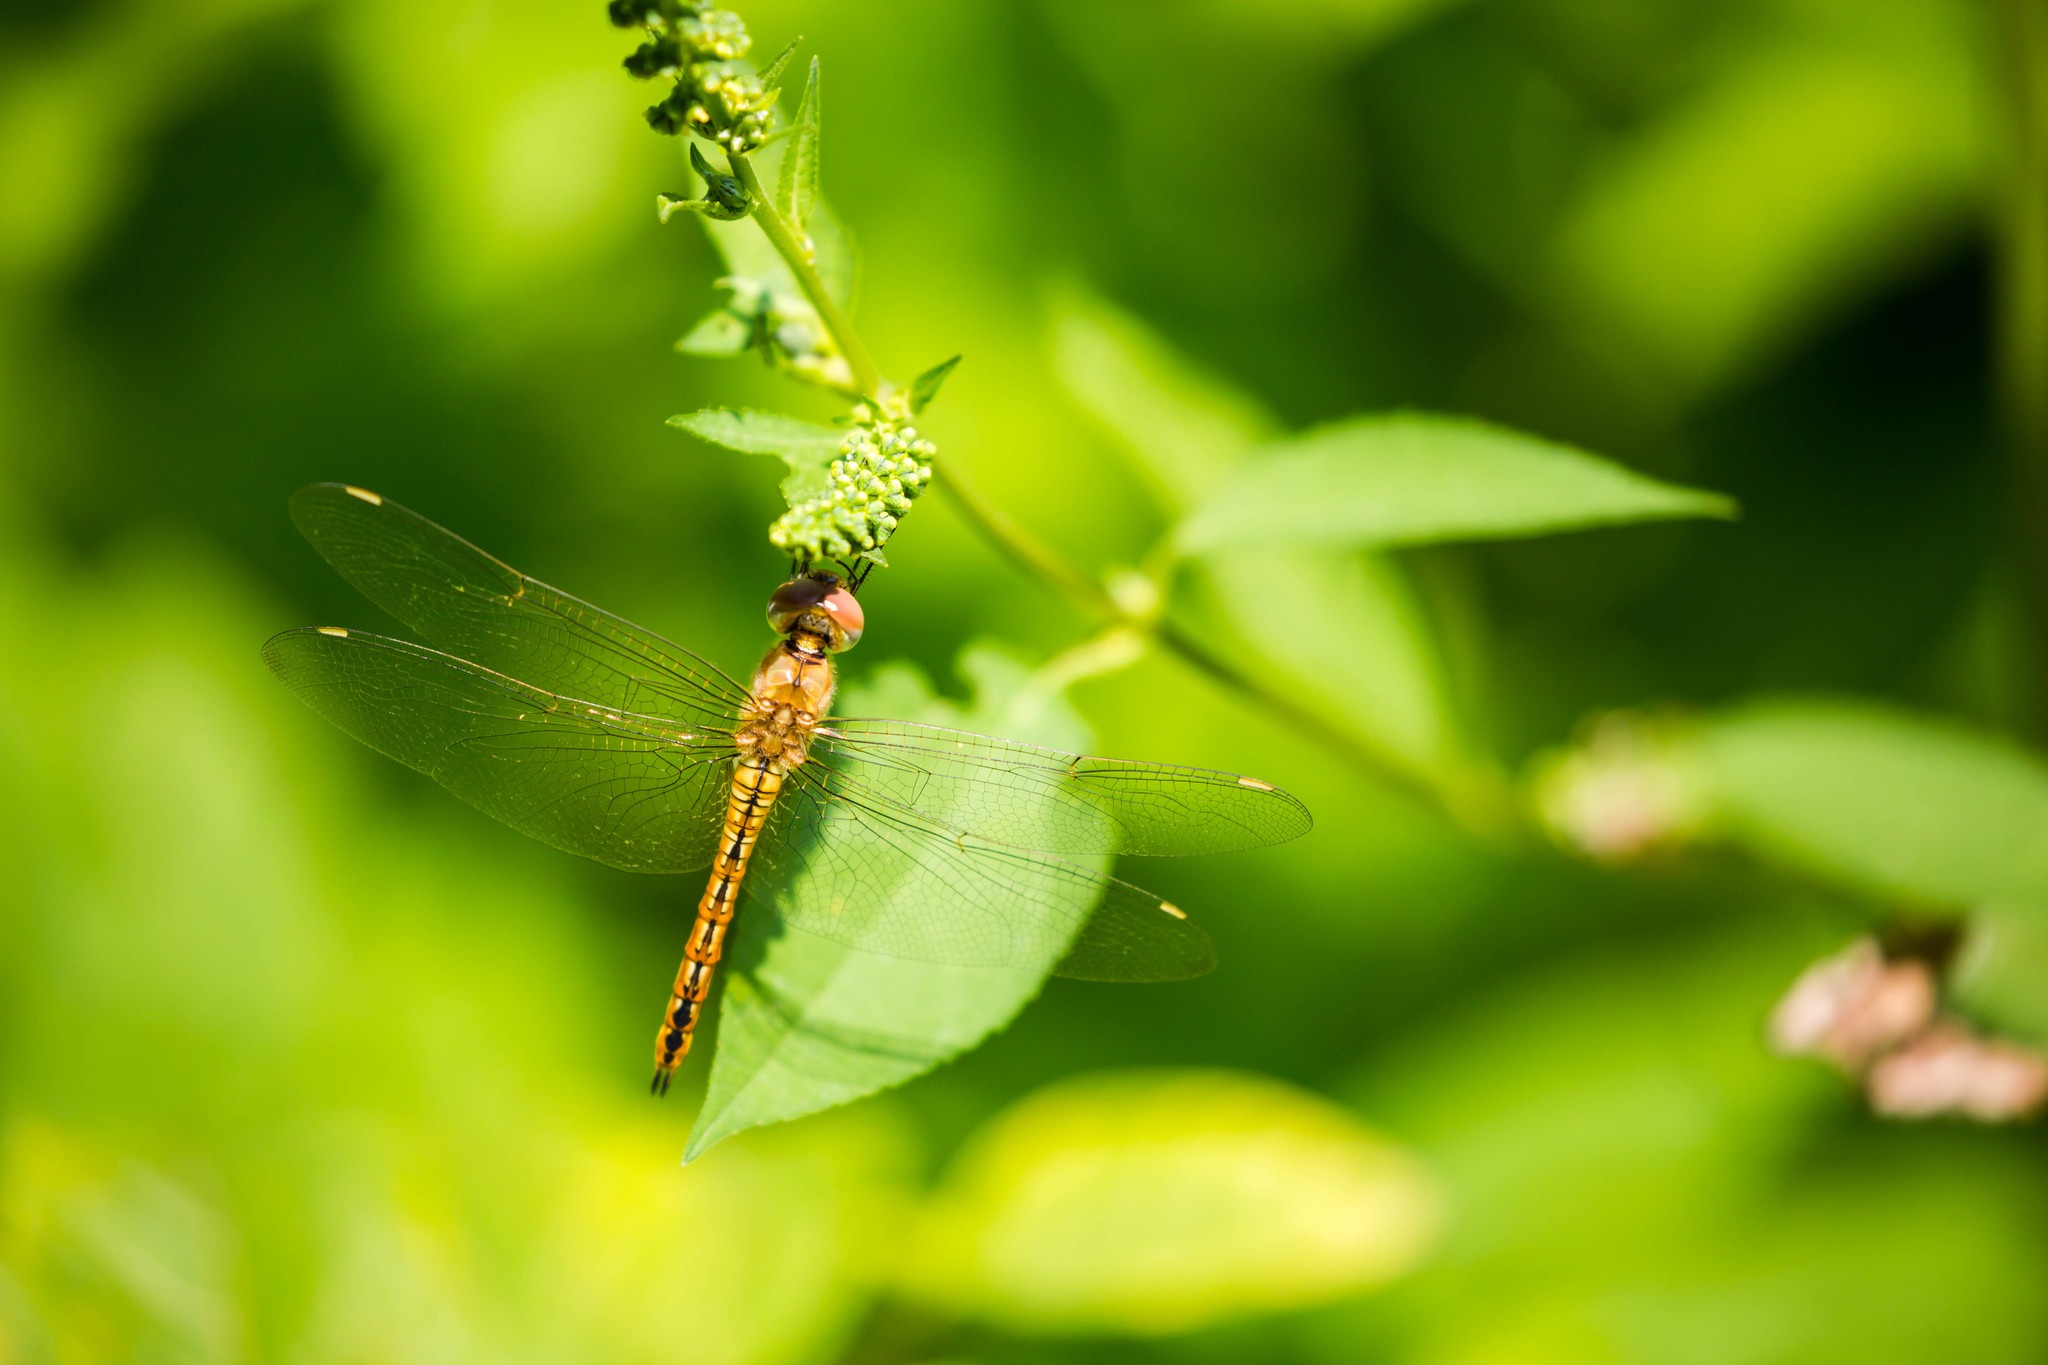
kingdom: Animalia
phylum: Arthropoda
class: Insecta
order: Odonata
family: Libellulidae
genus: Pantala
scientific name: Pantala flavescens
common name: Wandering glider
